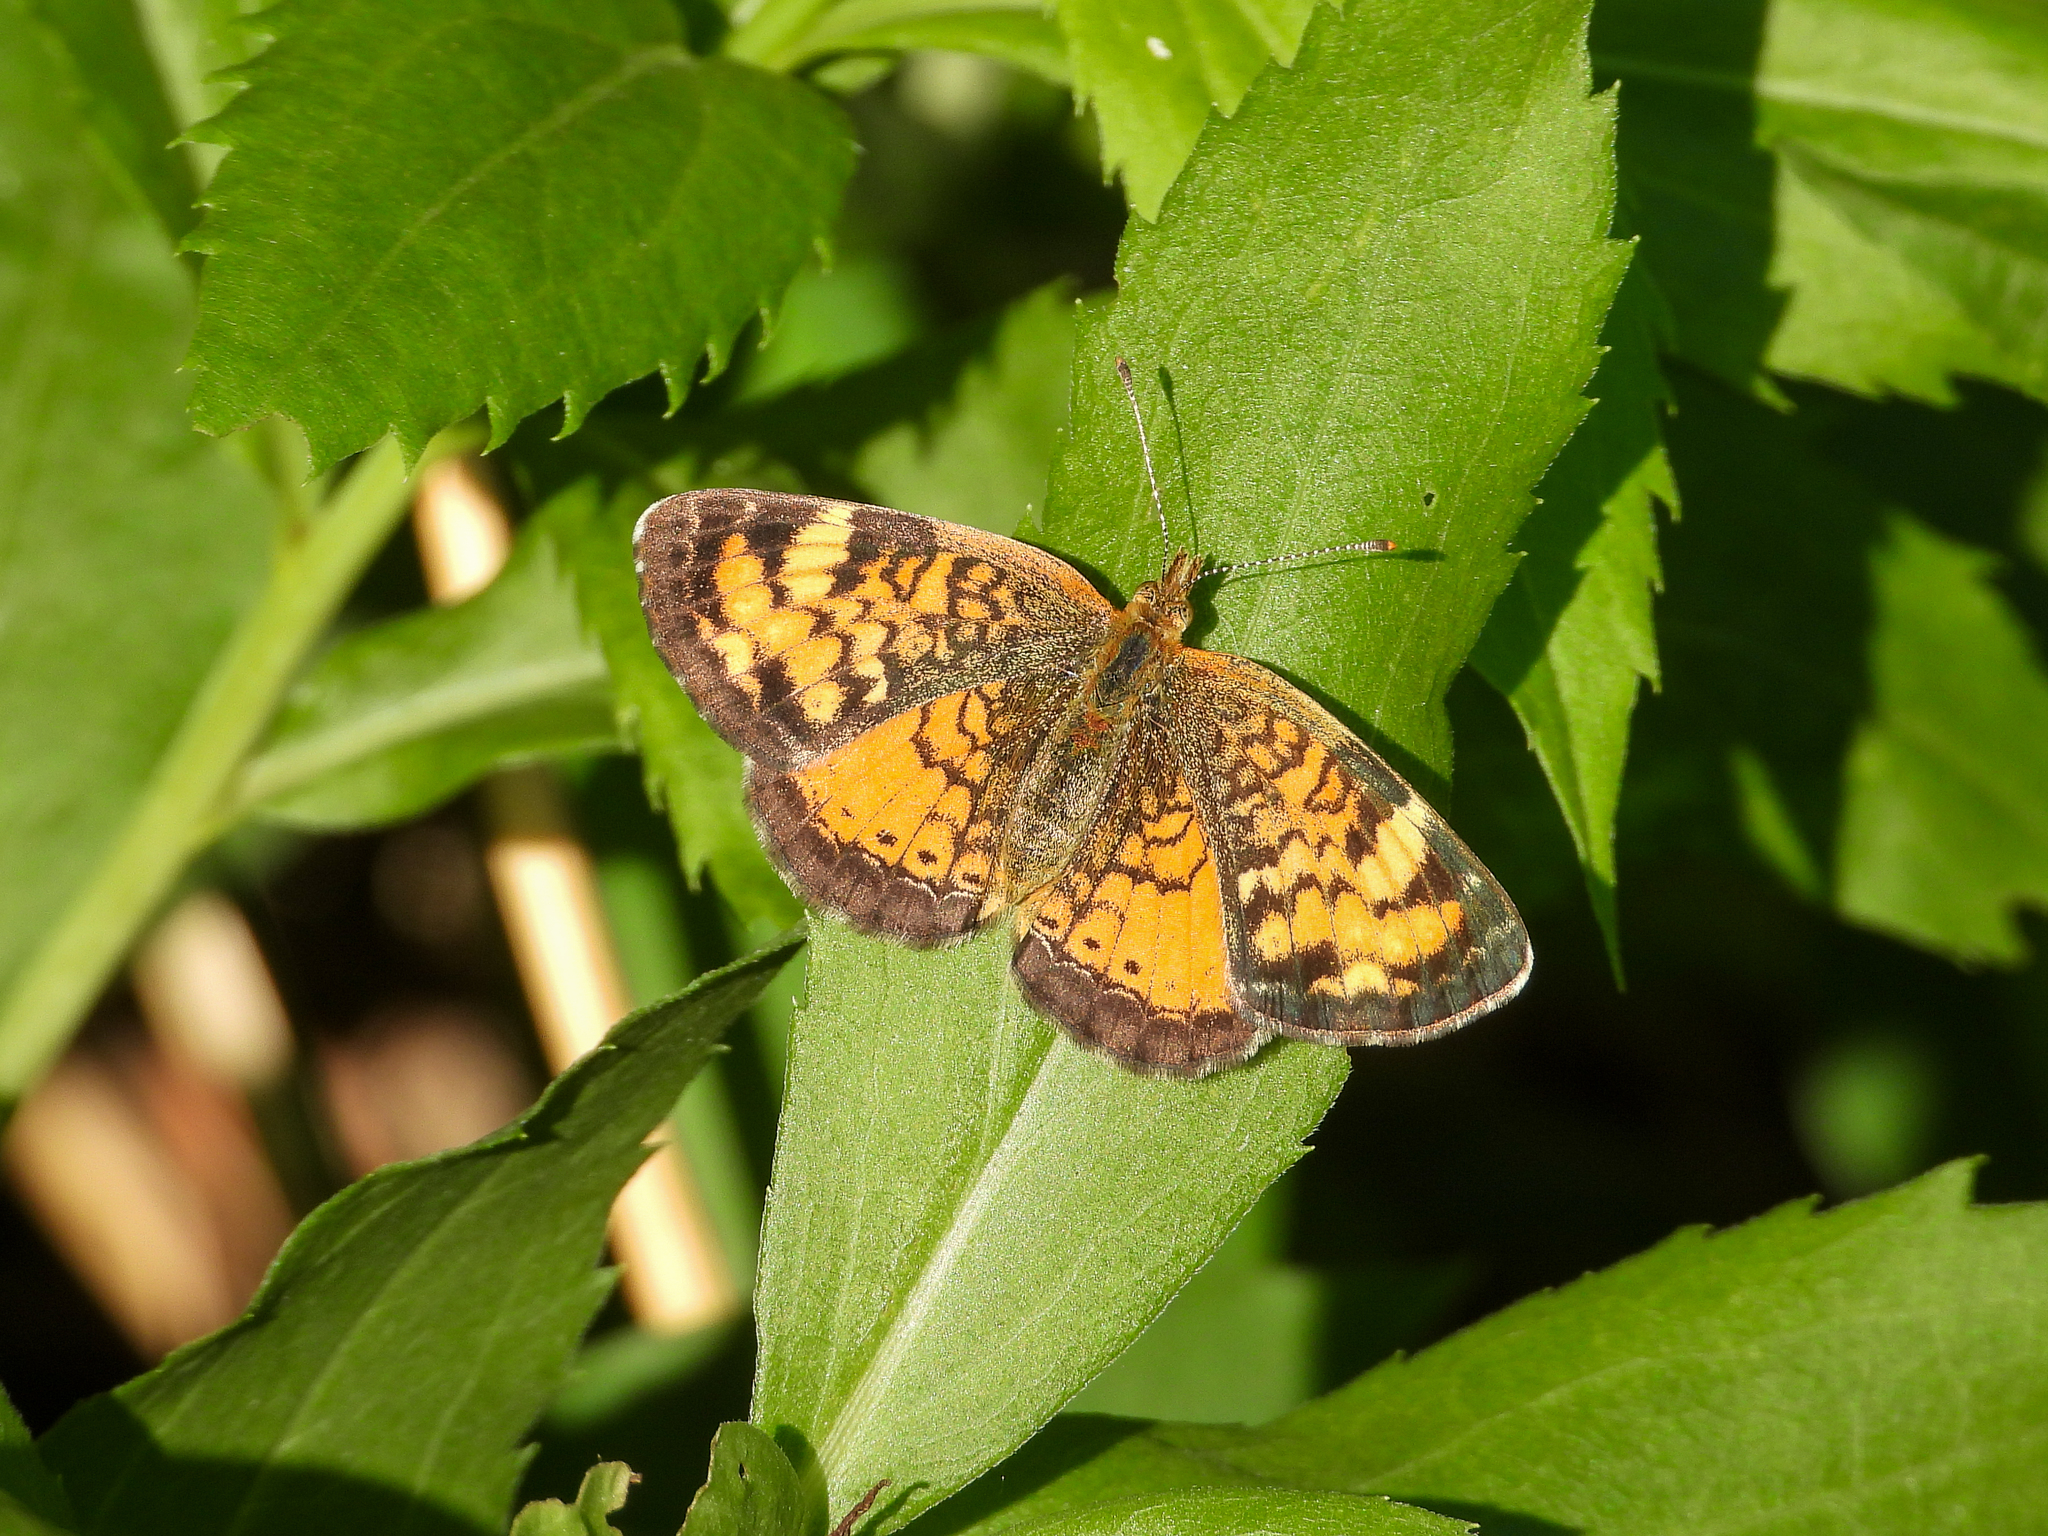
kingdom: Animalia
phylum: Arthropoda
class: Insecta
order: Lepidoptera
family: Nymphalidae
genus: Phyciodes
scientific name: Phyciodes tharos
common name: Pearl crescent
